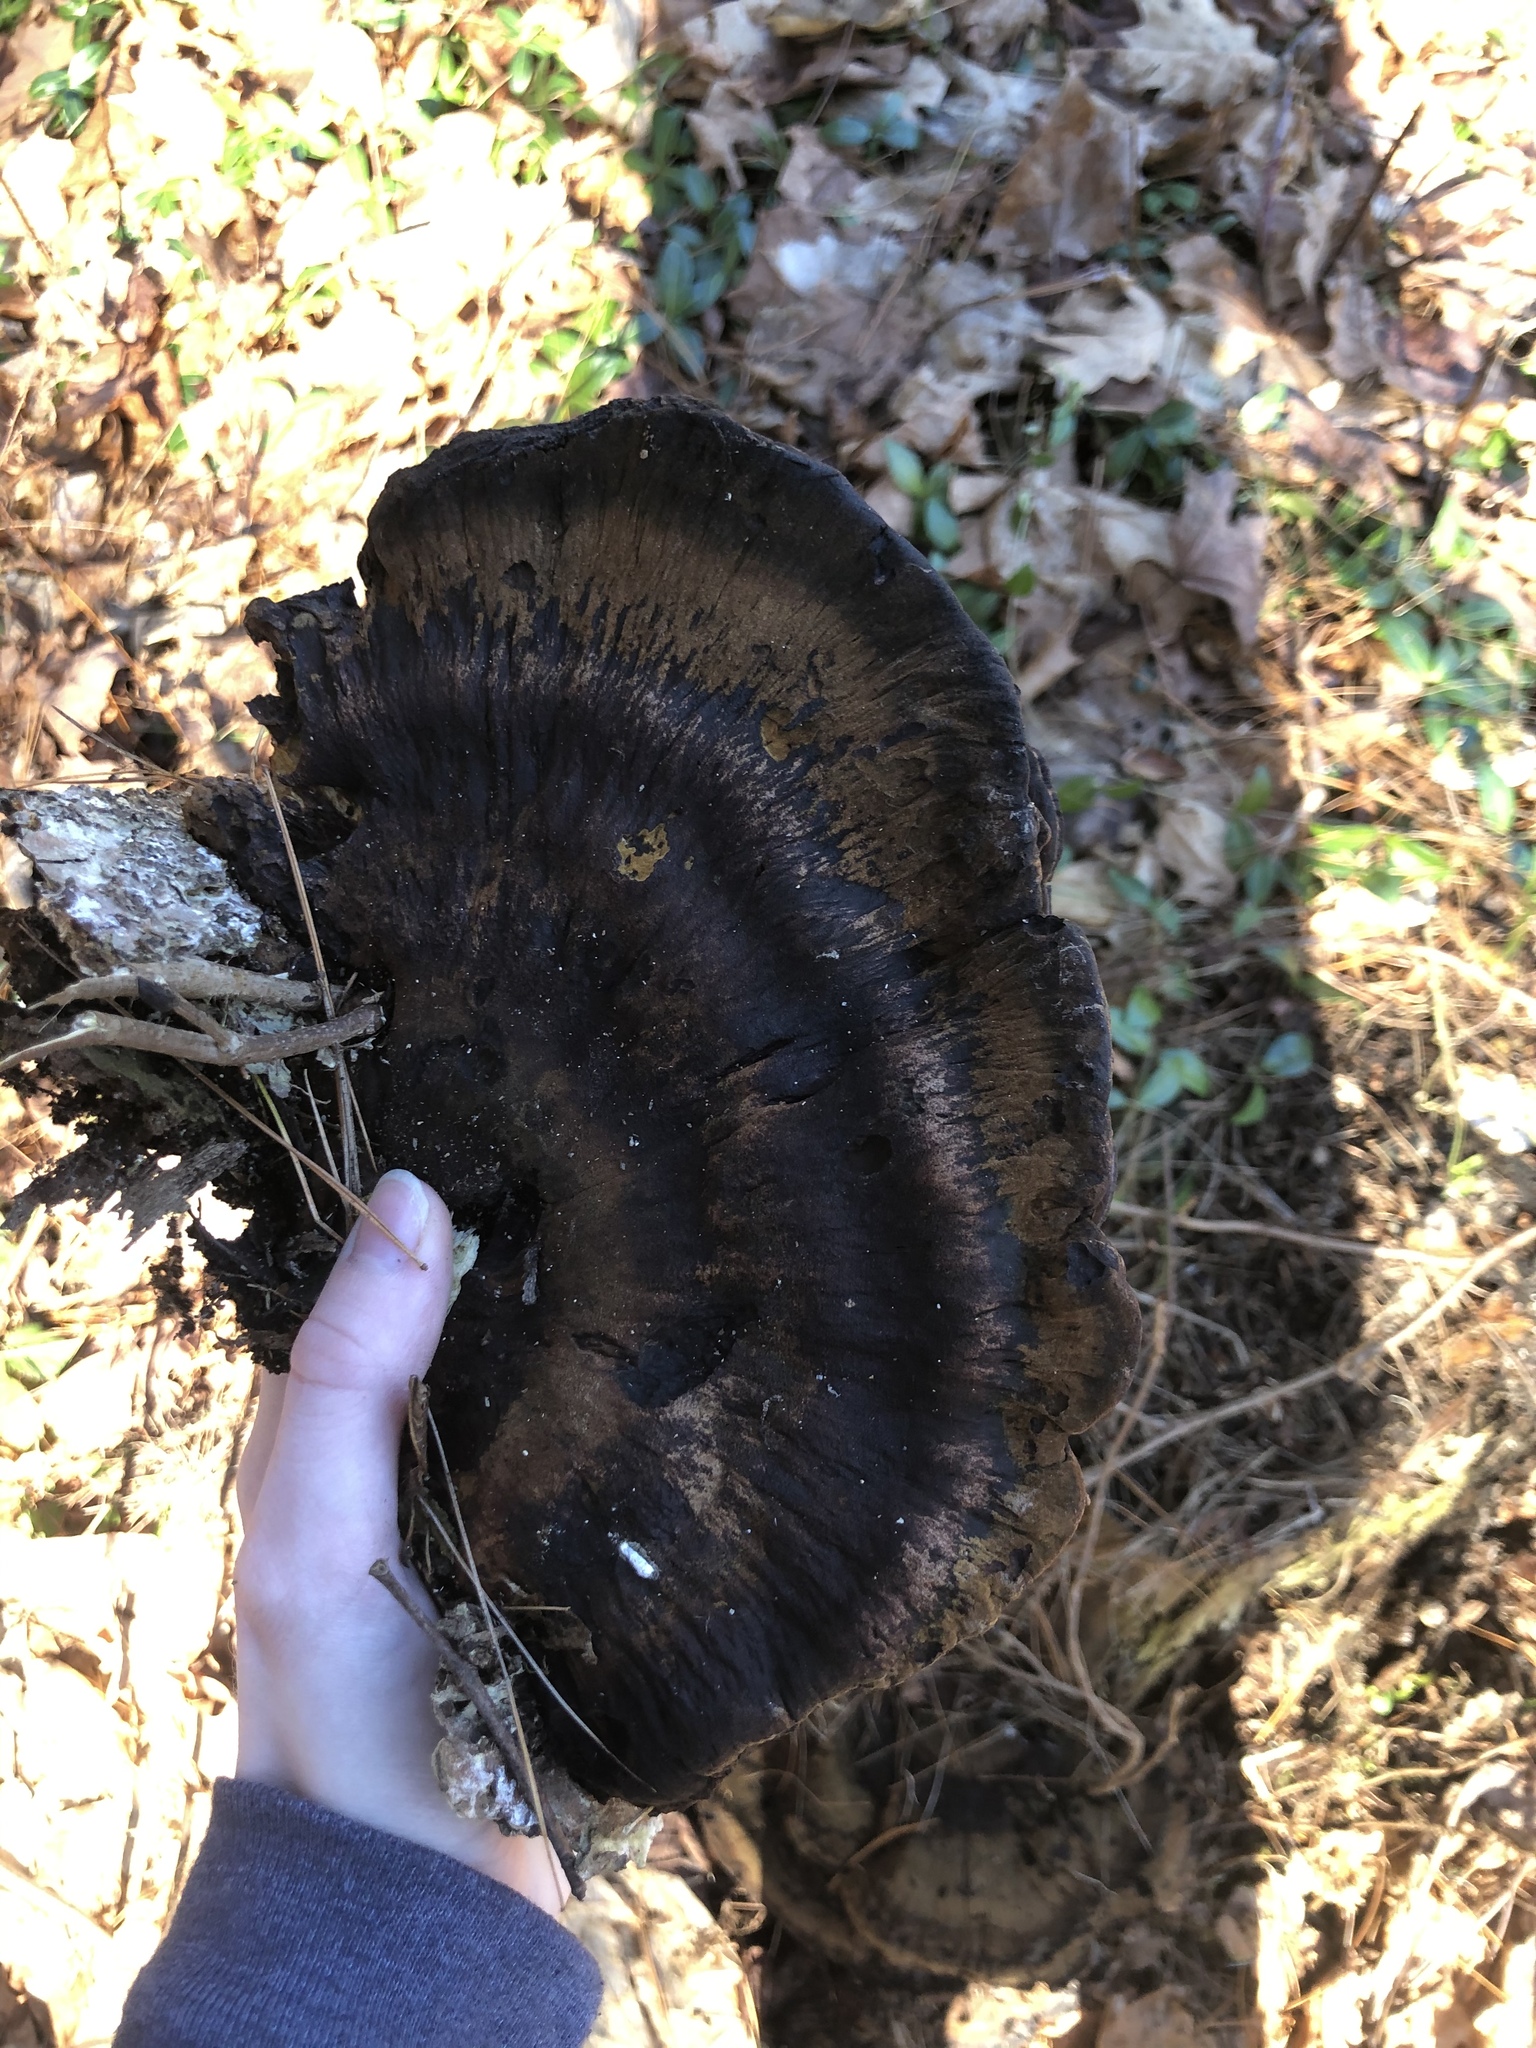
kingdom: Fungi
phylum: Basidiomycota
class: Agaricomycetes
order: Polyporales
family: Ischnodermataceae
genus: Ischnoderma
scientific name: Ischnoderma resinosum
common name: Resinous polypore
